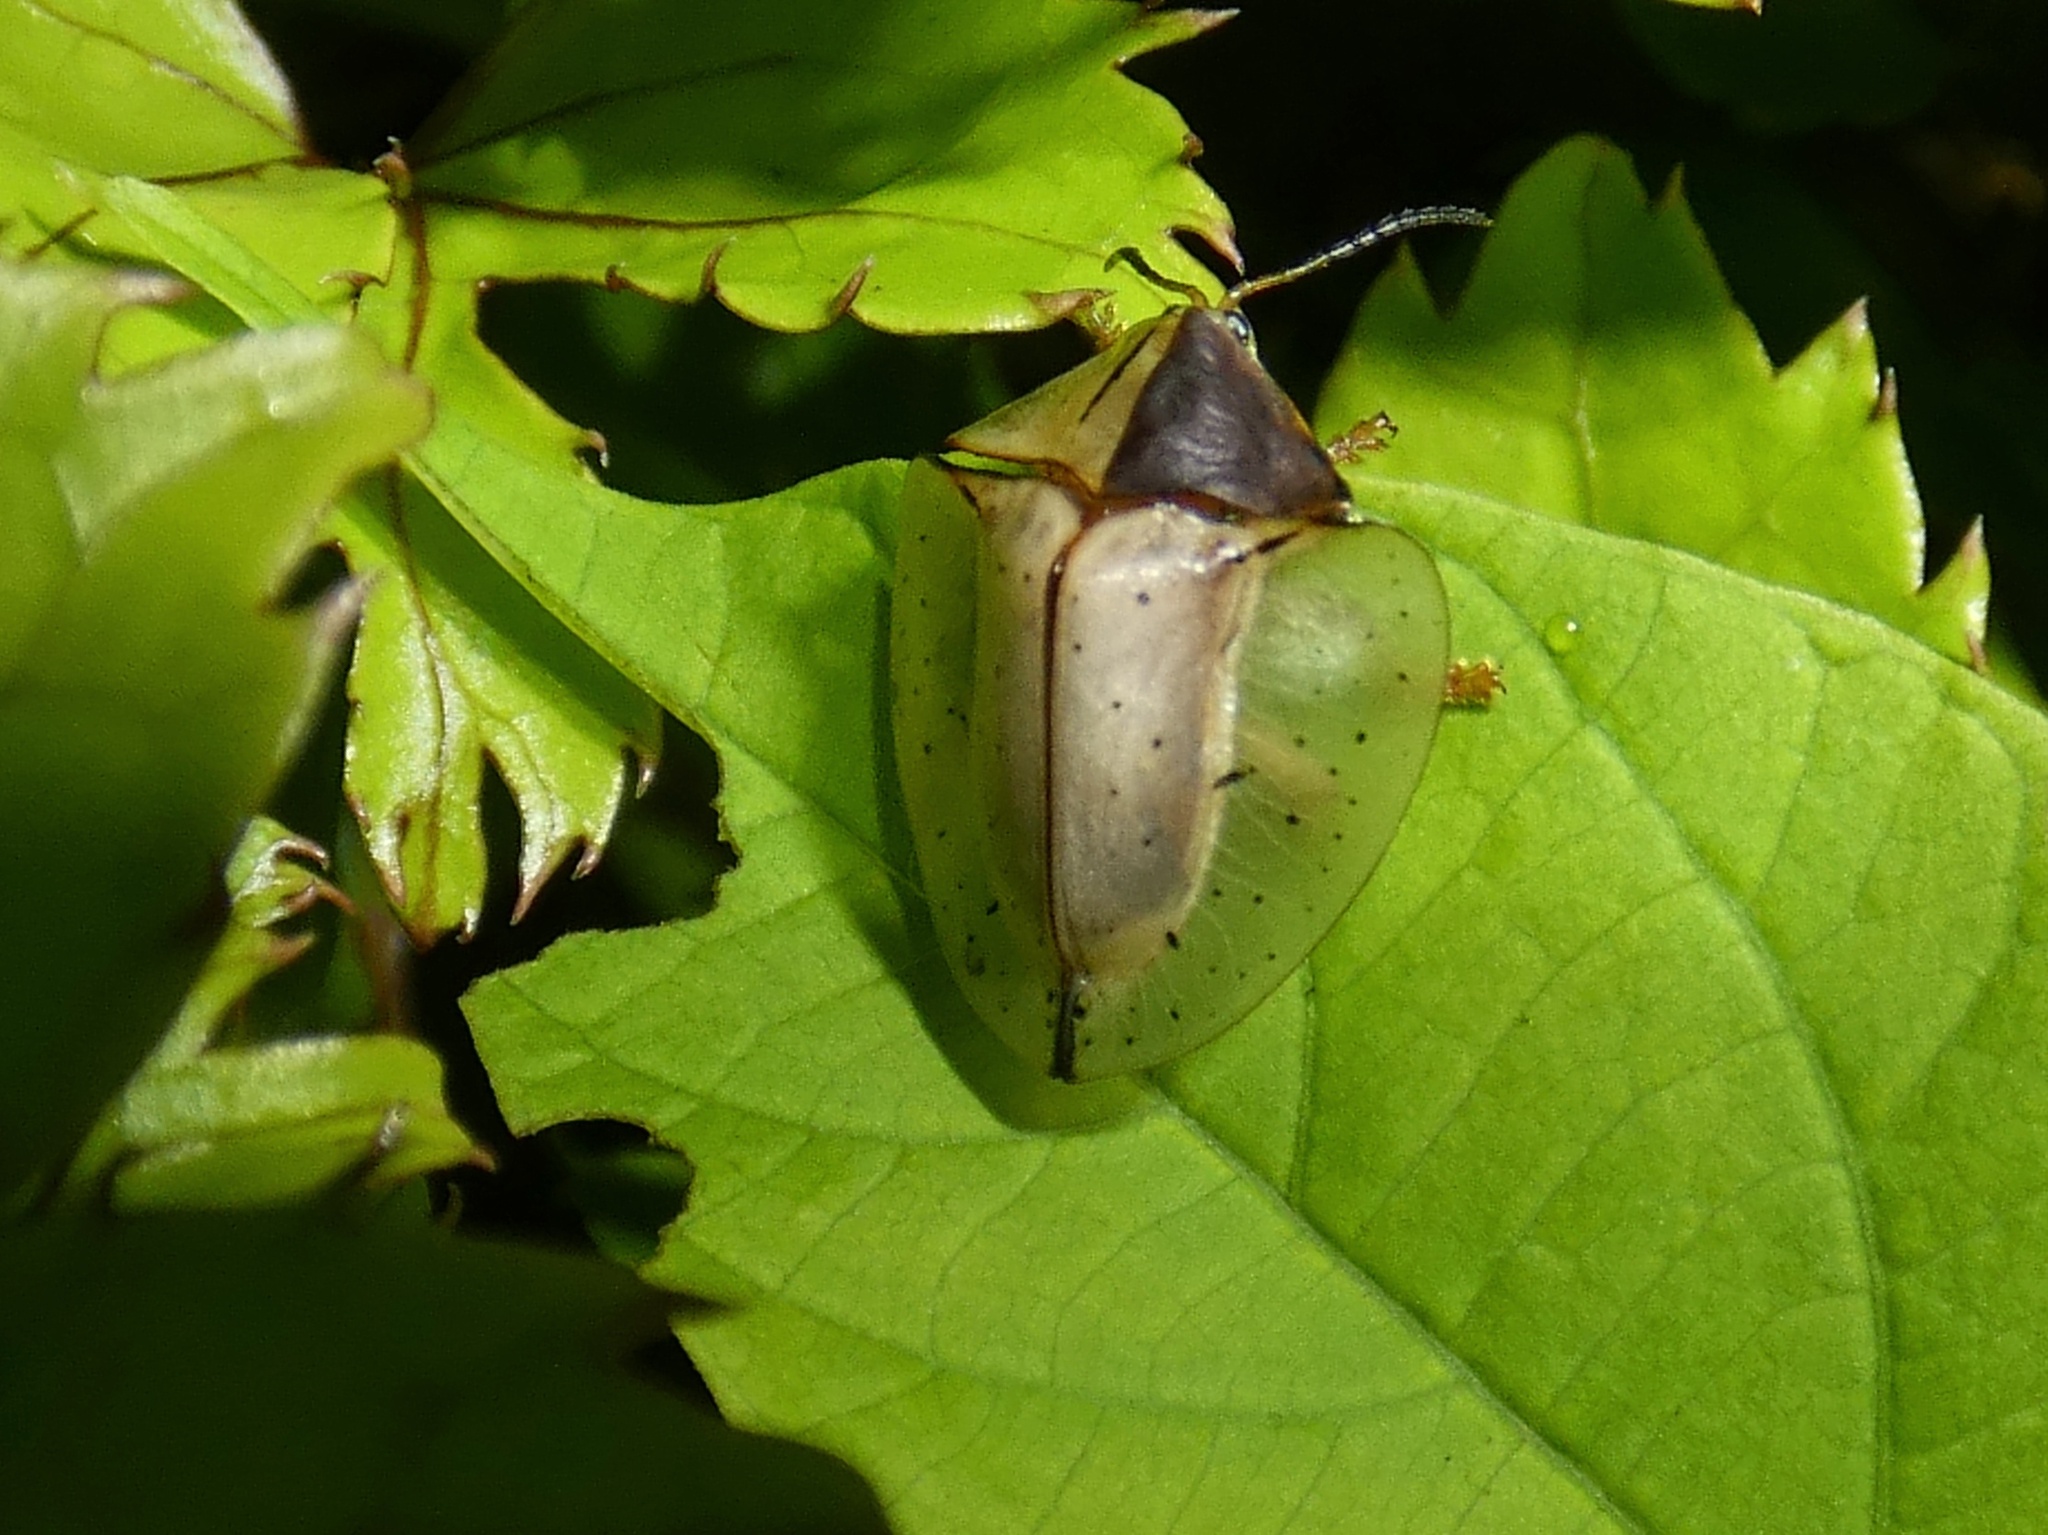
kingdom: Animalia
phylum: Arthropoda
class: Insecta
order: Coleoptera
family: Chrysomelidae
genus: Acromis
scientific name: Acromis sparsa
